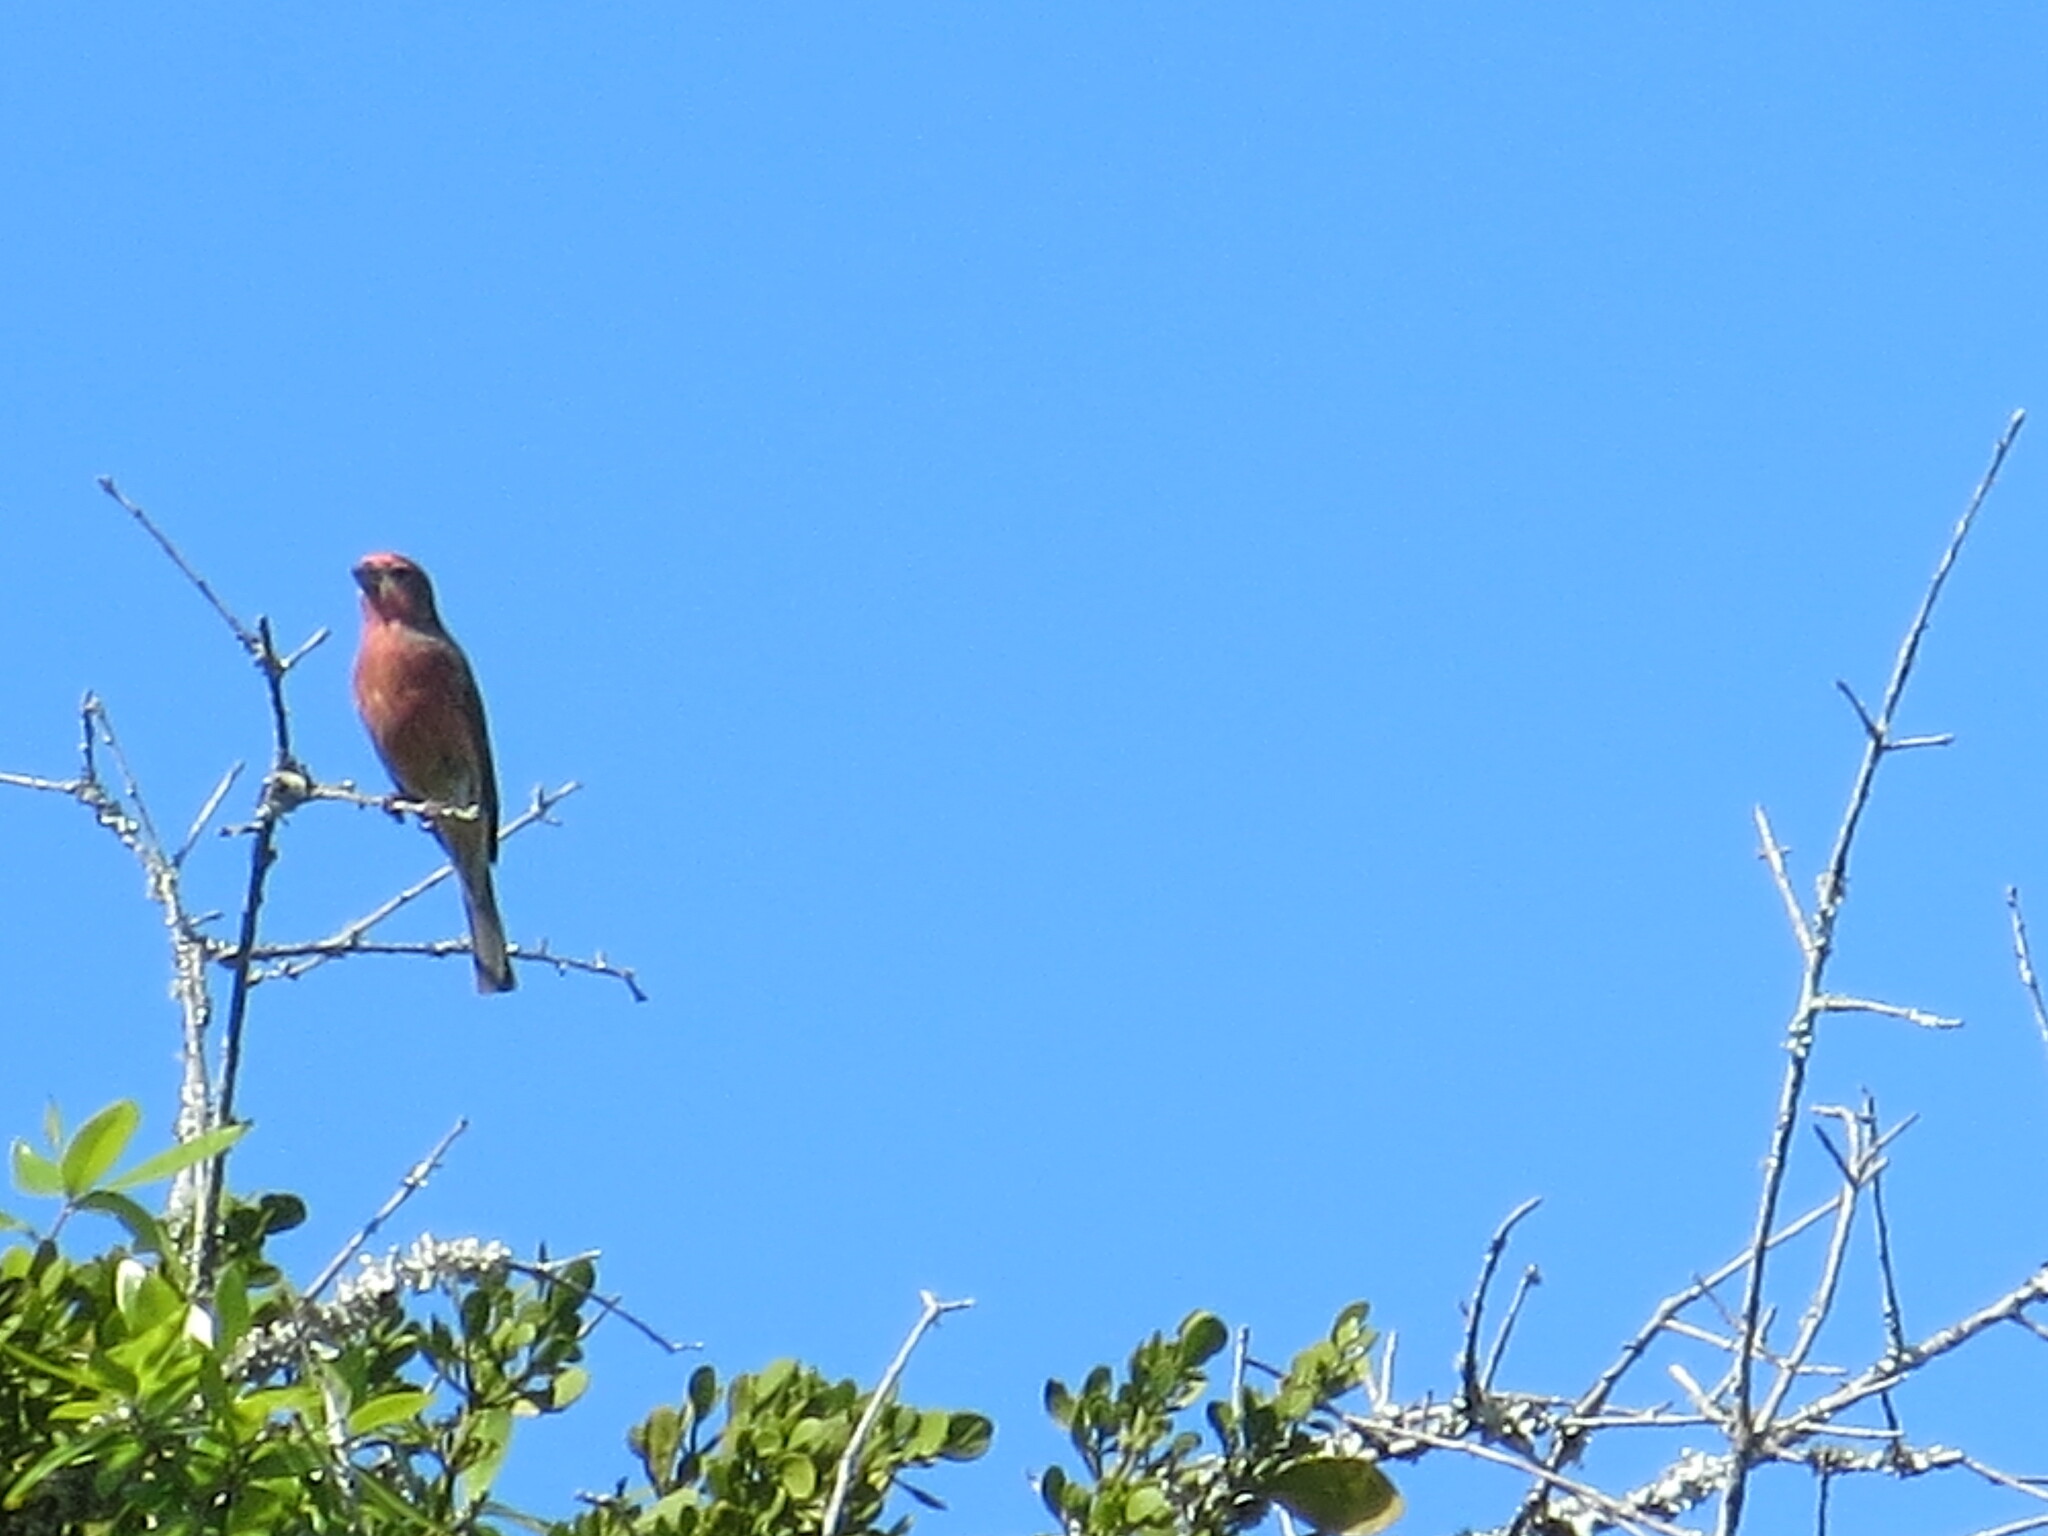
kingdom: Animalia
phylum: Chordata
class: Aves
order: Passeriformes
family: Fringillidae
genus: Haemorhous
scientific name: Haemorhous mexicanus
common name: House finch
